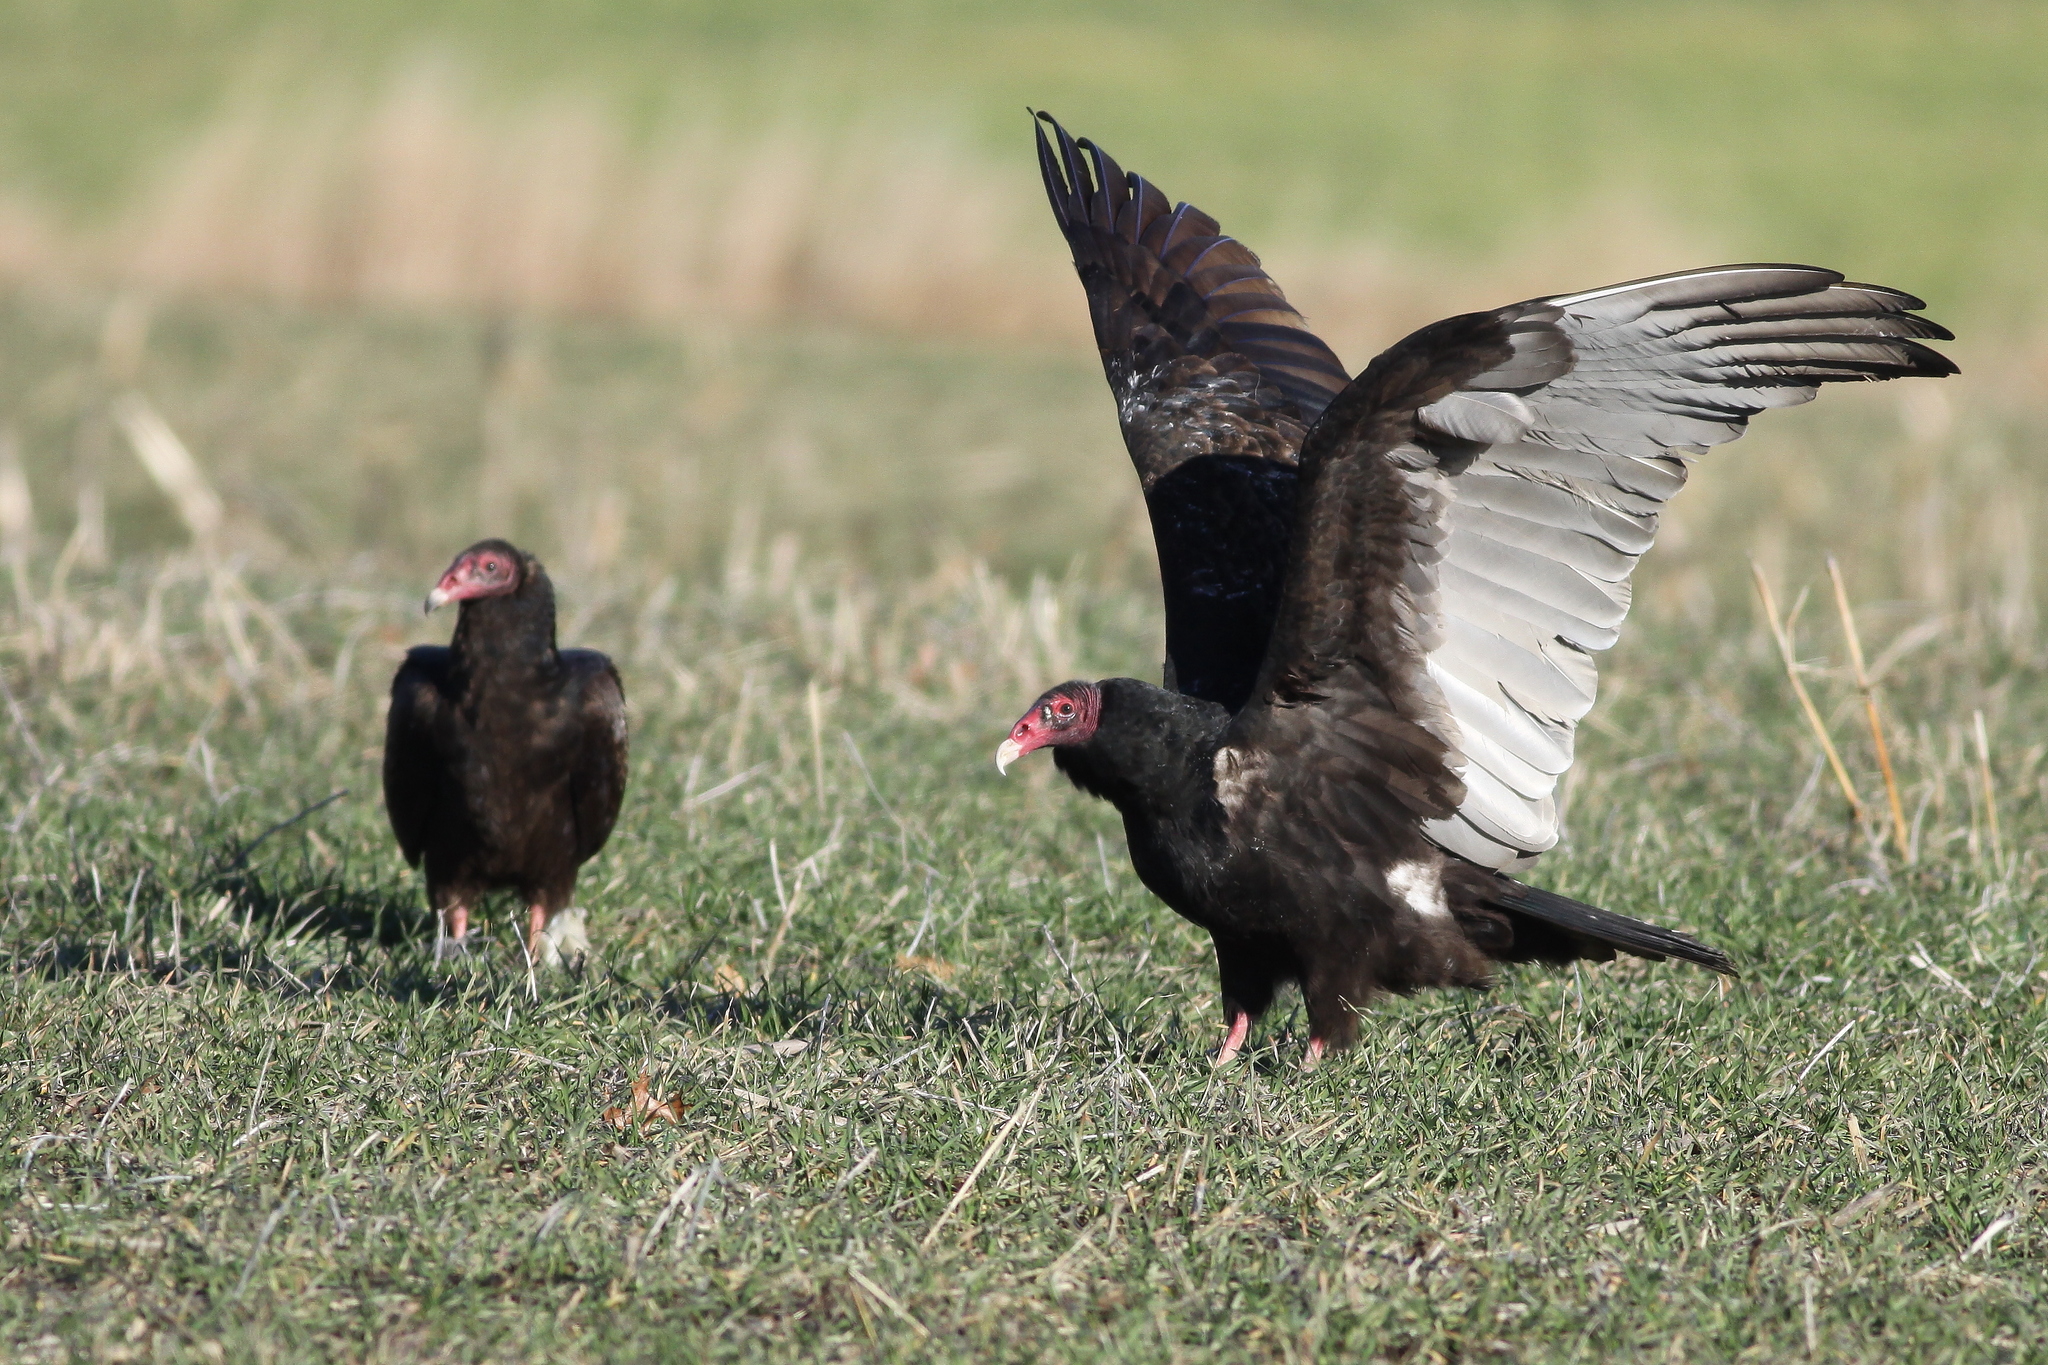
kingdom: Animalia
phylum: Chordata
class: Aves
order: Accipitriformes
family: Cathartidae
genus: Cathartes
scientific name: Cathartes aura
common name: Turkey vulture
